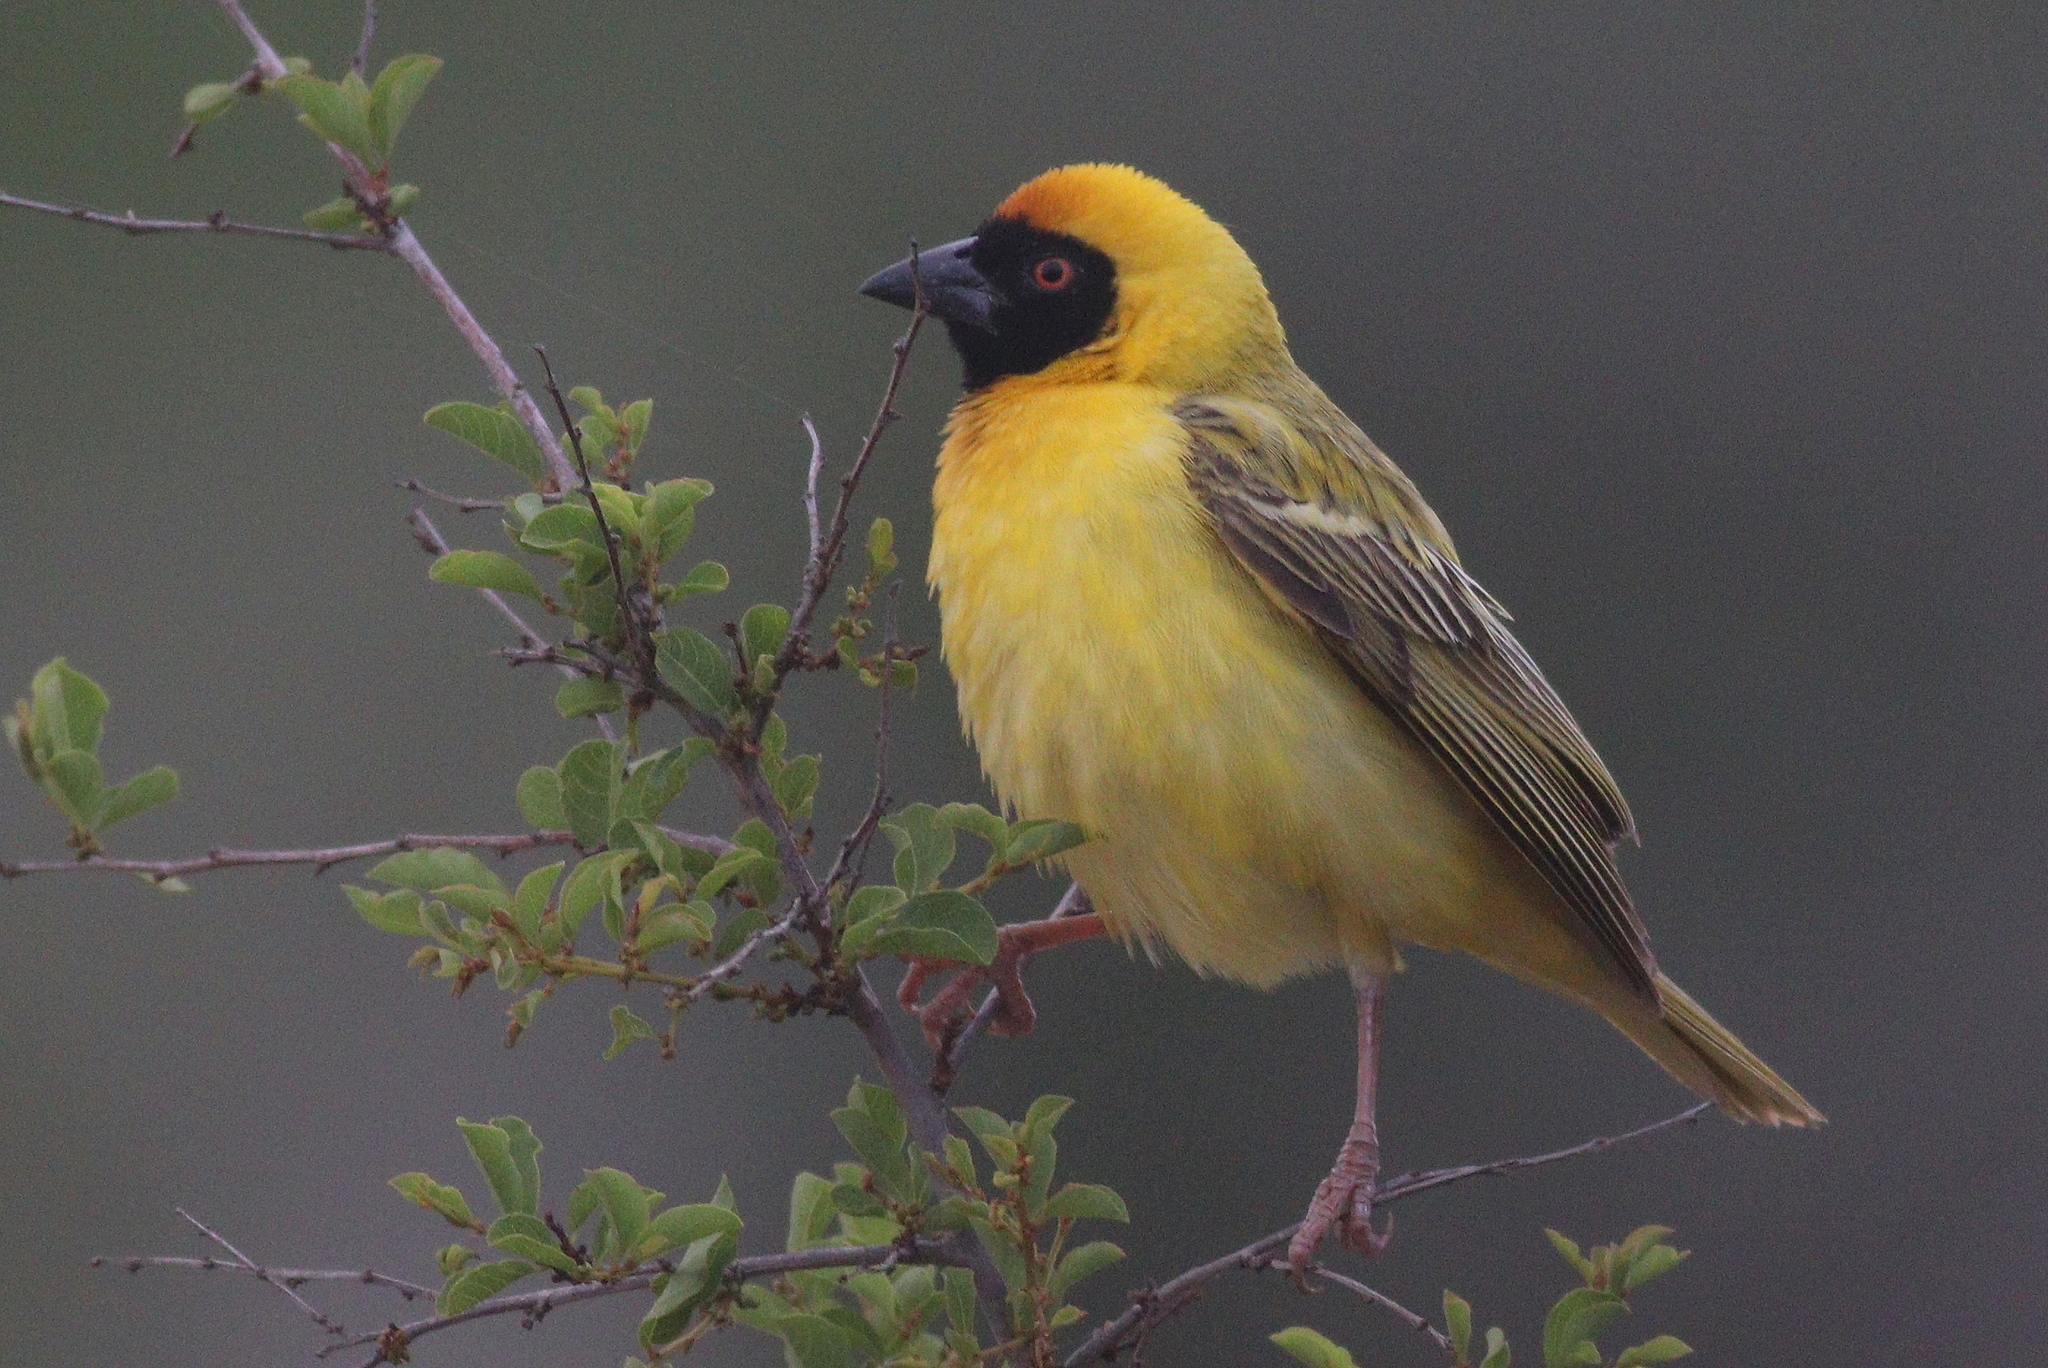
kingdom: Animalia
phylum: Chordata
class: Aves
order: Passeriformes
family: Ploceidae
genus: Ploceus
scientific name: Ploceus velatus
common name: Southern masked weaver
